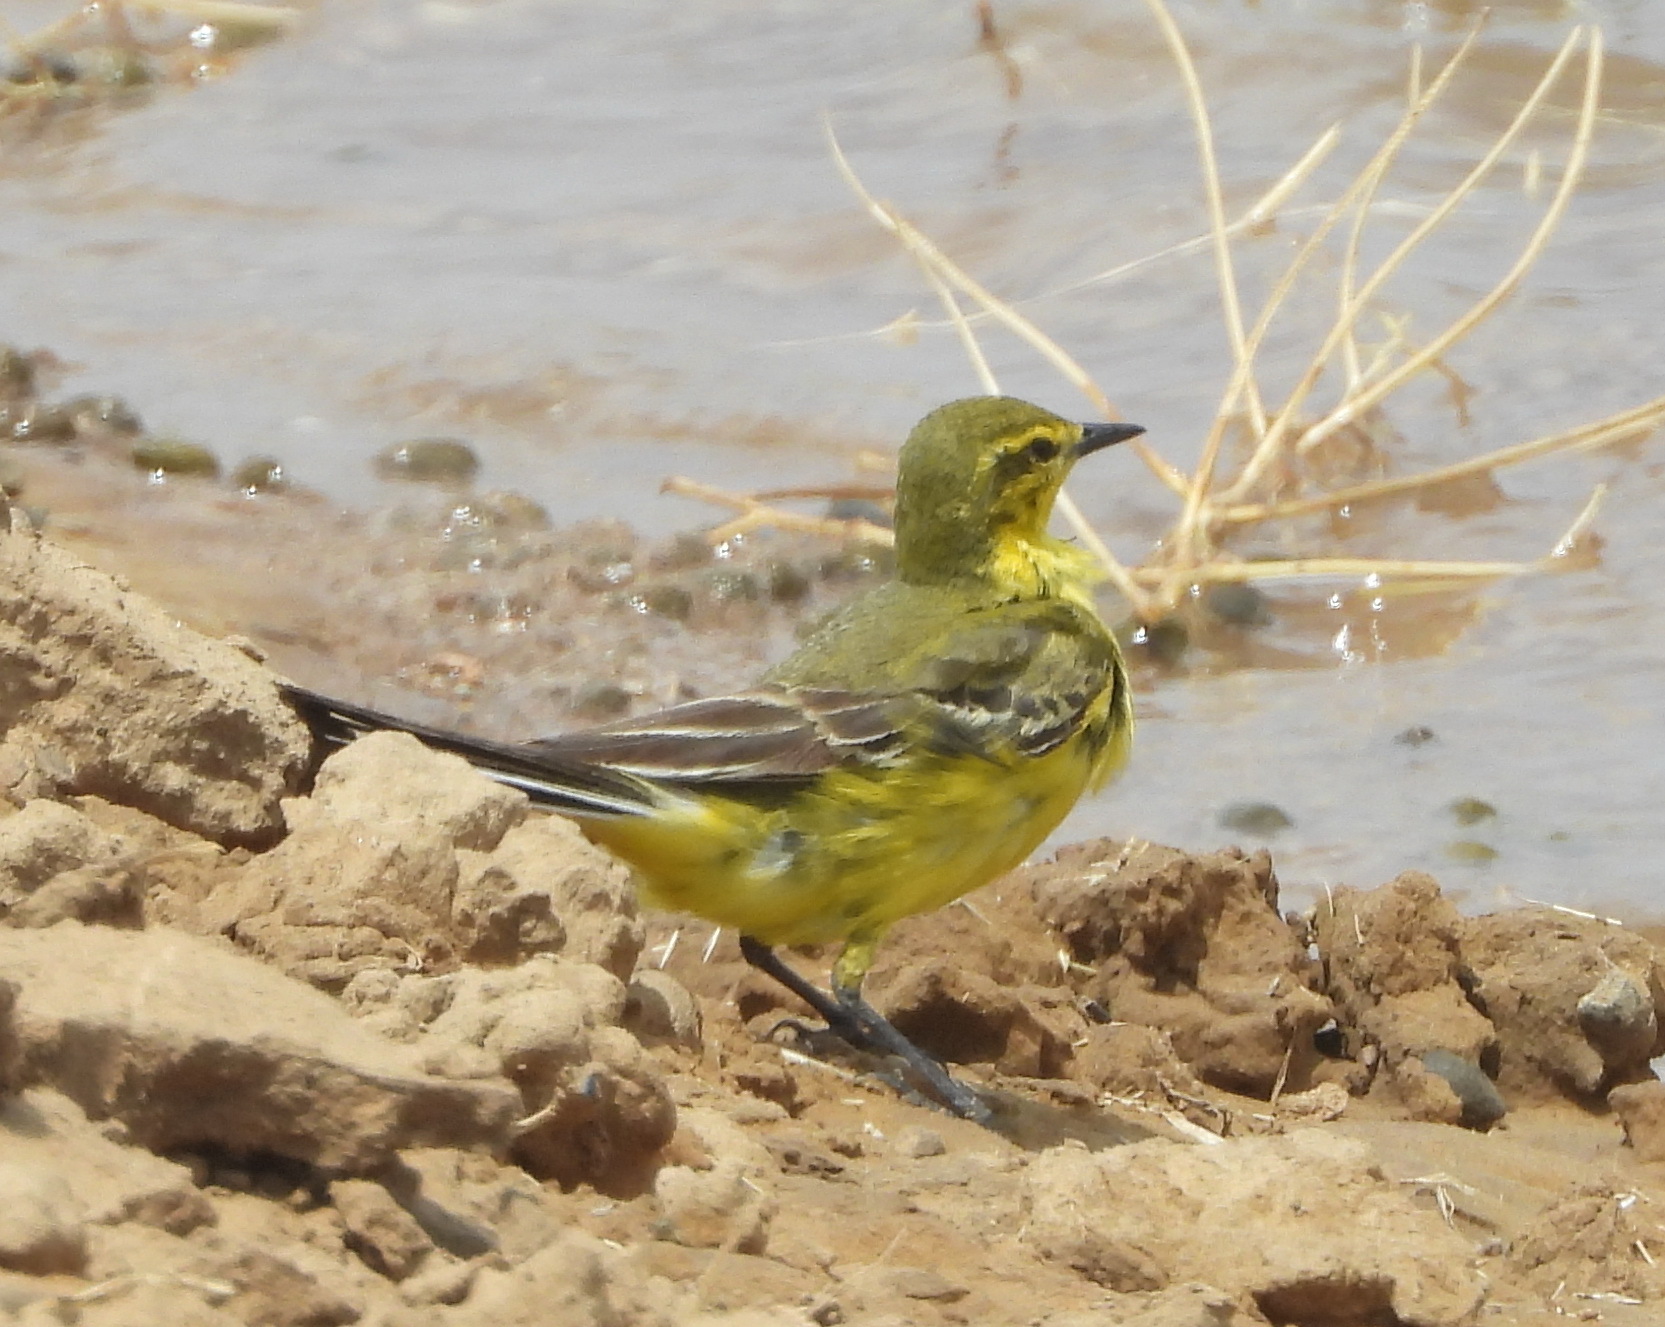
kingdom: Animalia
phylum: Chordata
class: Aves
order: Passeriformes
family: Motacillidae
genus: Motacilla
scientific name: Motacilla flava
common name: Western yellow wagtail
